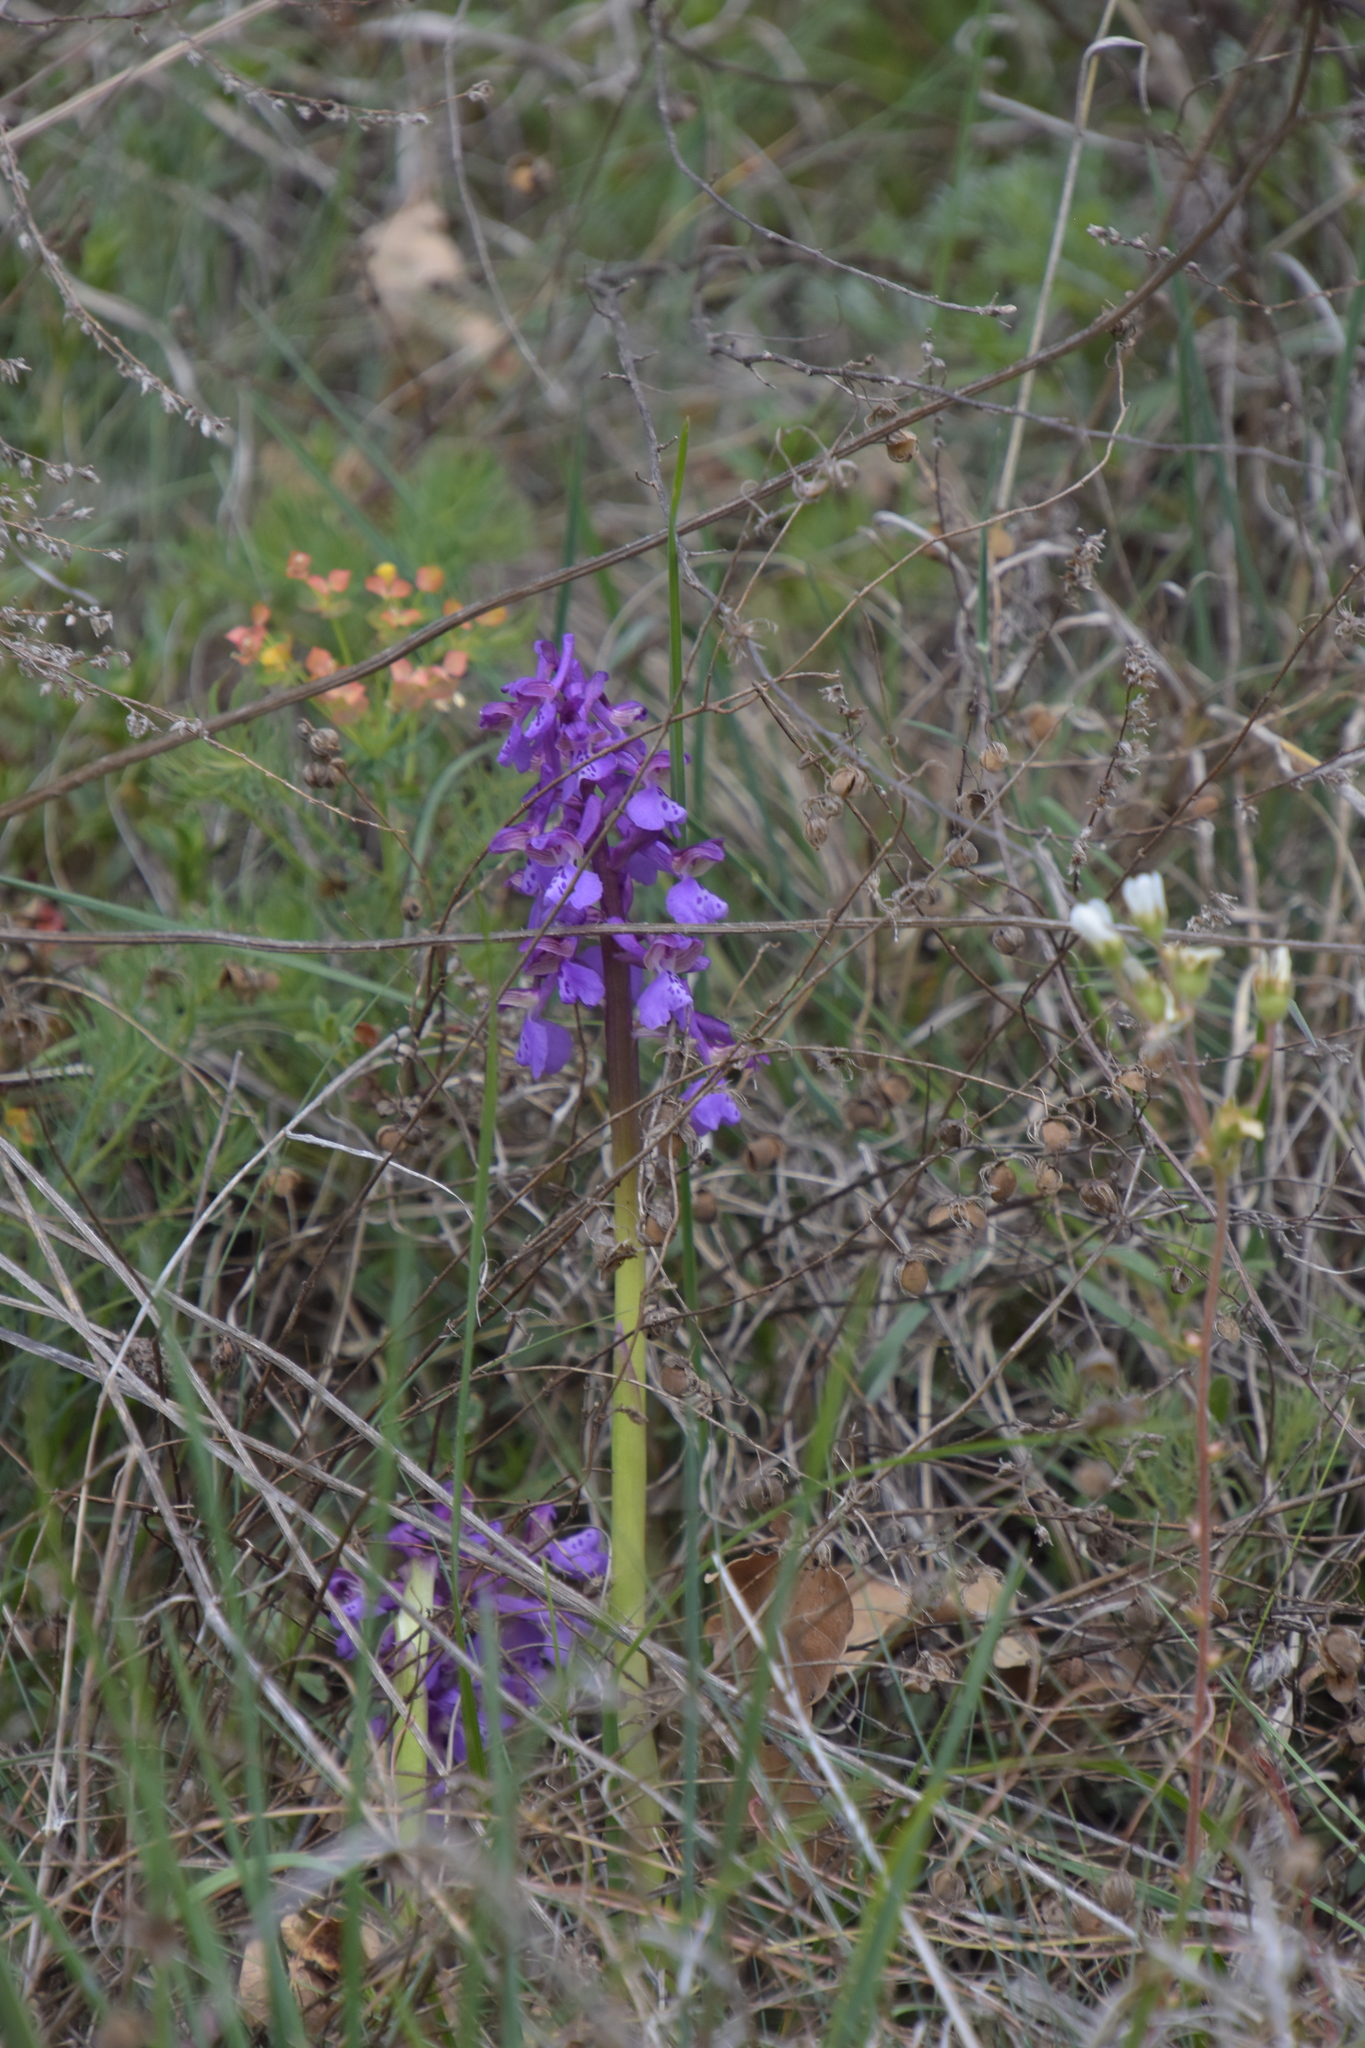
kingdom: Plantae
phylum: Tracheophyta
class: Liliopsida
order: Asparagales
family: Orchidaceae
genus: Anacamptis
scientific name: Anacamptis morio
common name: Green-winged orchid
